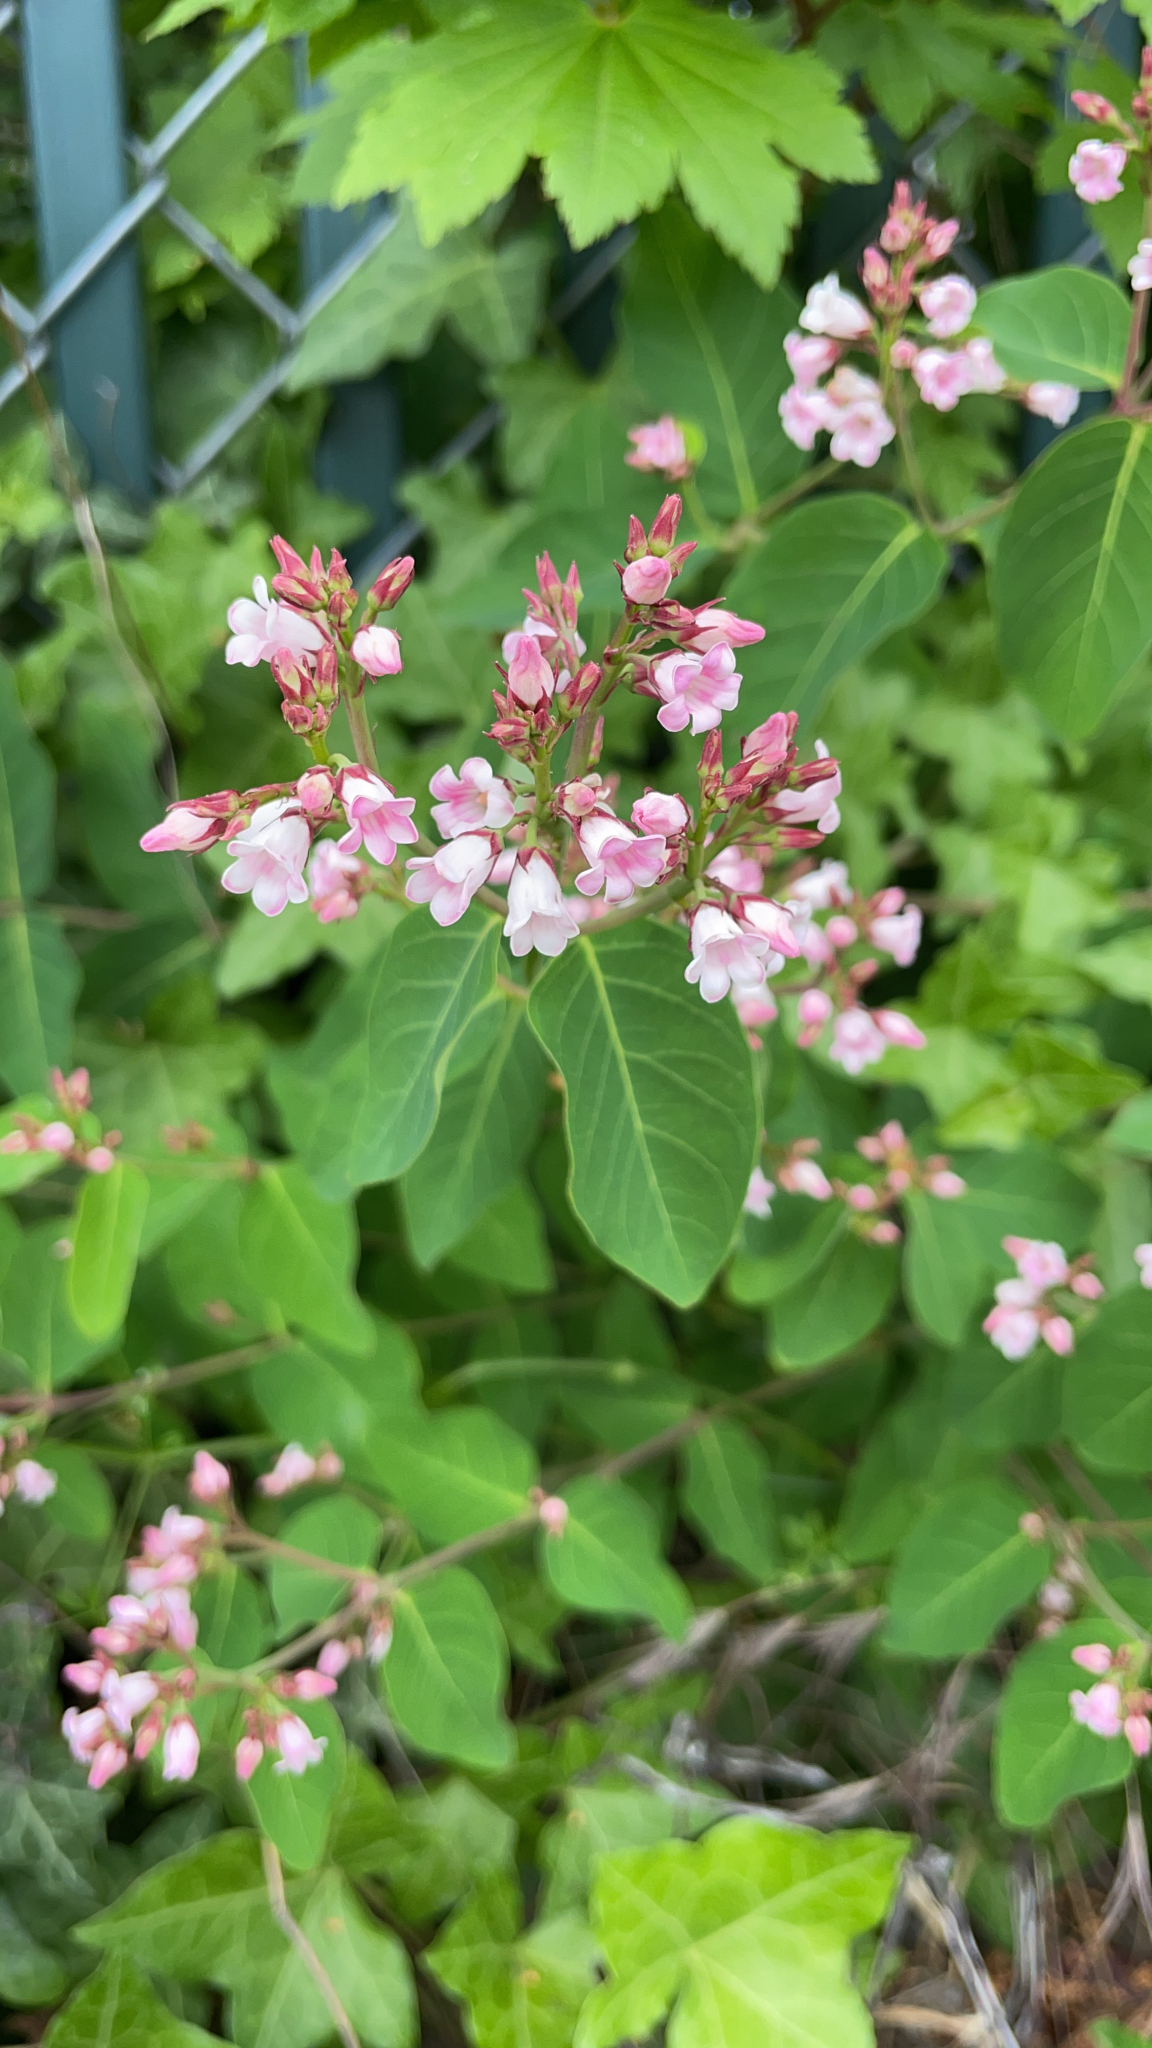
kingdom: Plantae
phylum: Tracheophyta
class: Magnoliopsida
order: Gentianales
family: Apocynaceae
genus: Apocynum
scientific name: Apocynum androsaemifolium
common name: Spreading dogbane
